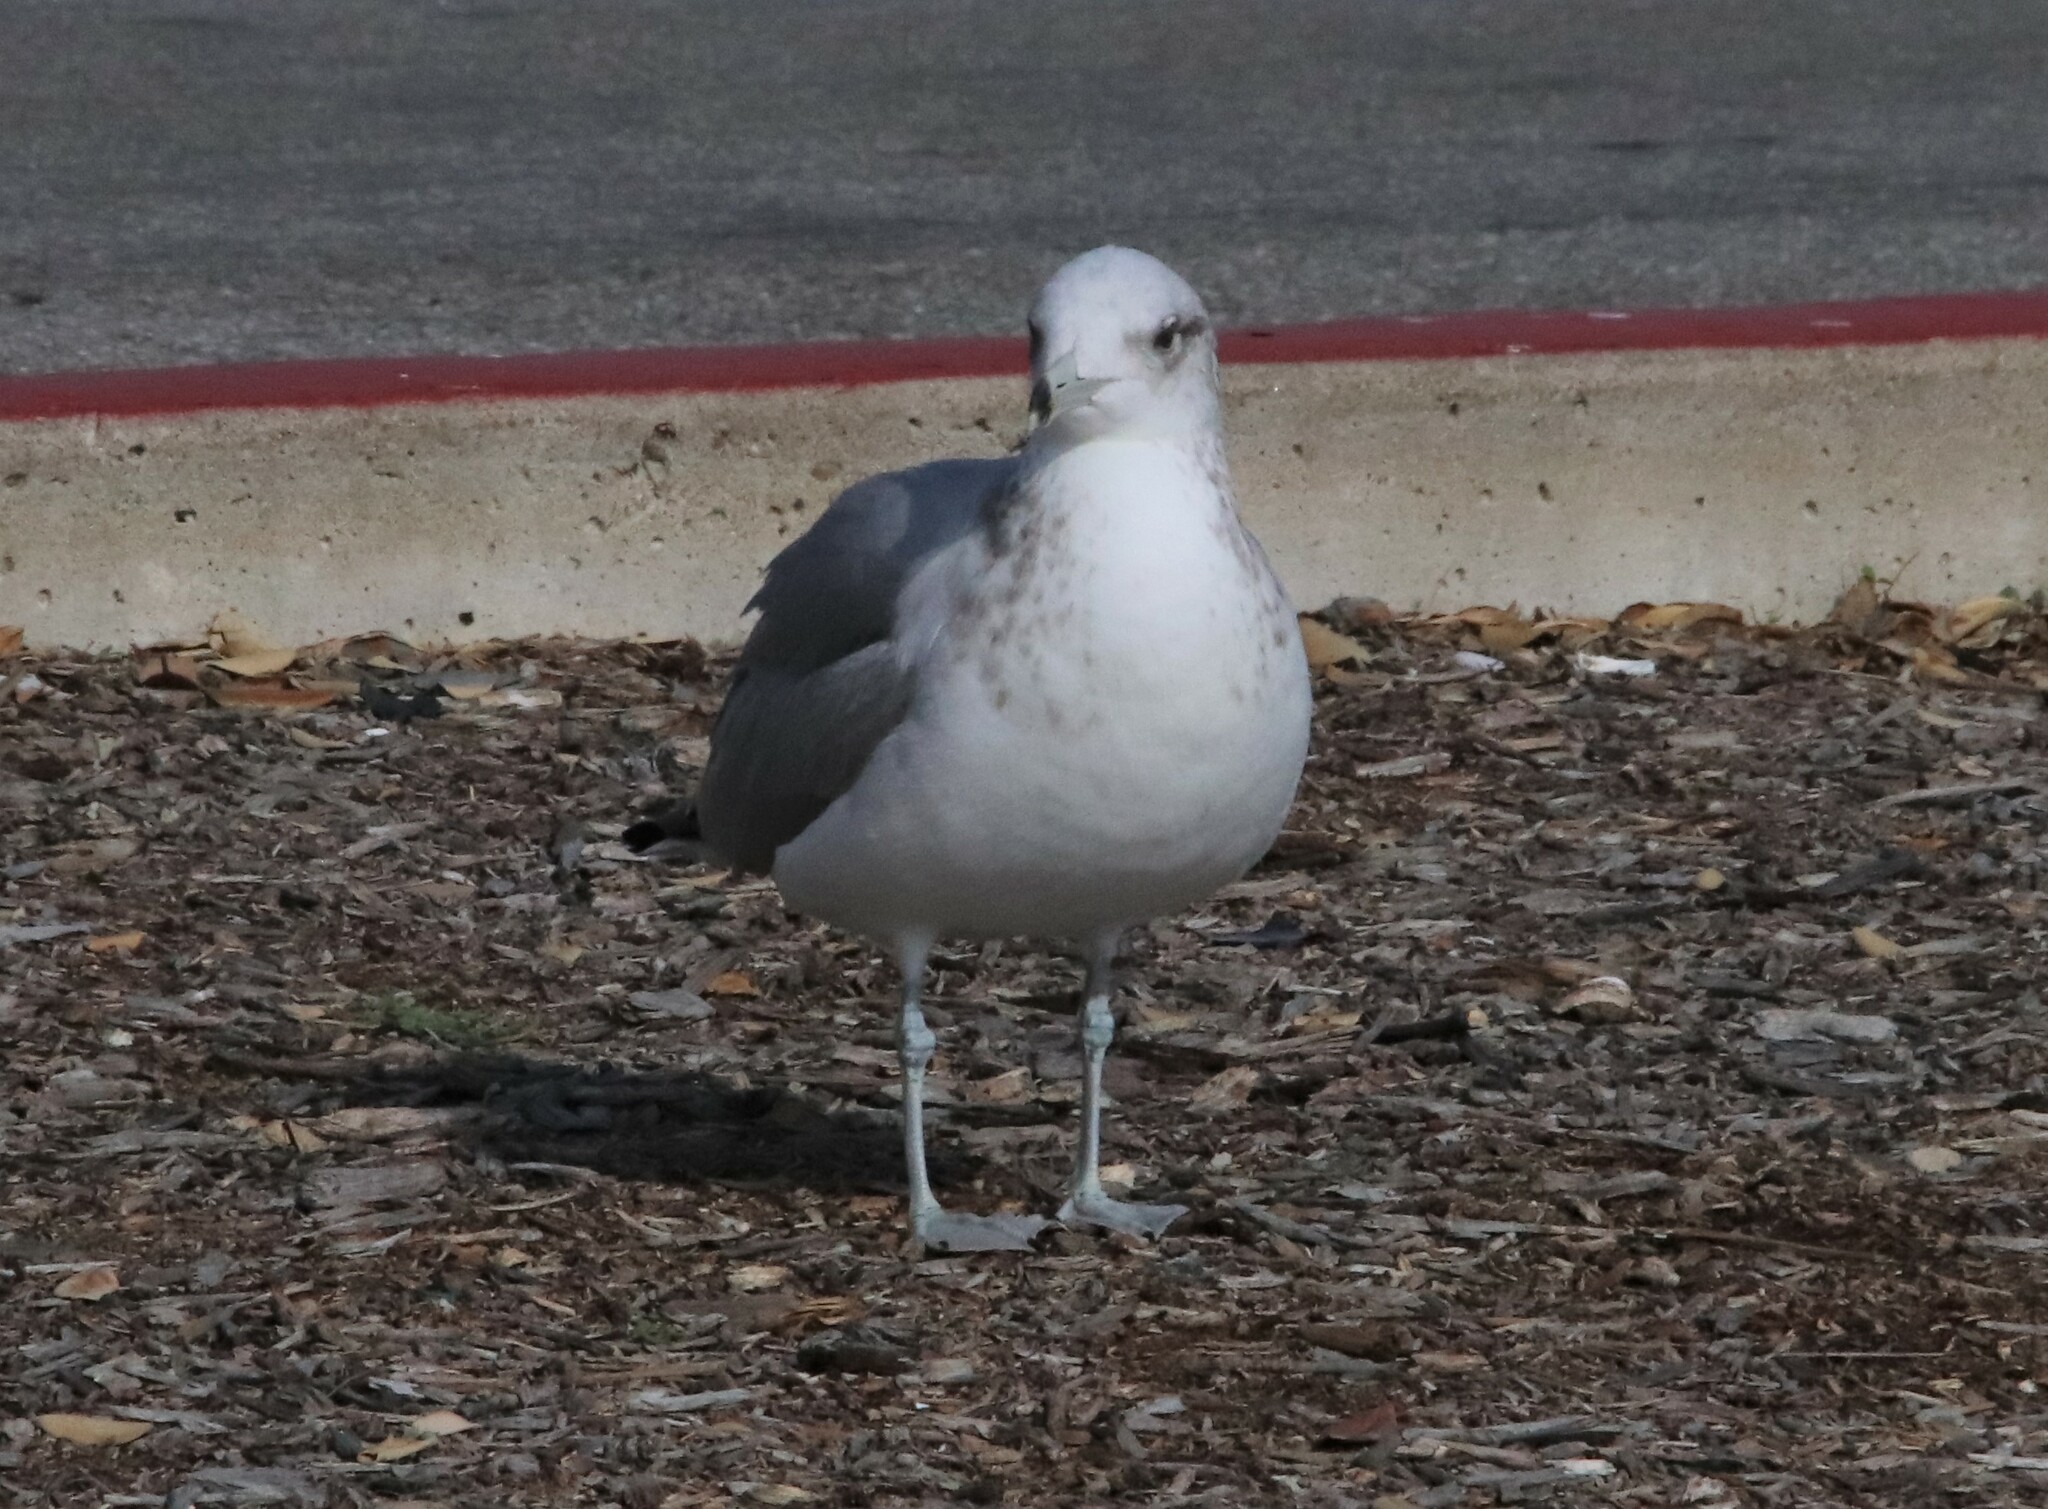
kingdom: Animalia
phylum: Chordata
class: Aves
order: Charadriiformes
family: Laridae
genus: Larus
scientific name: Larus californicus
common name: California gull
